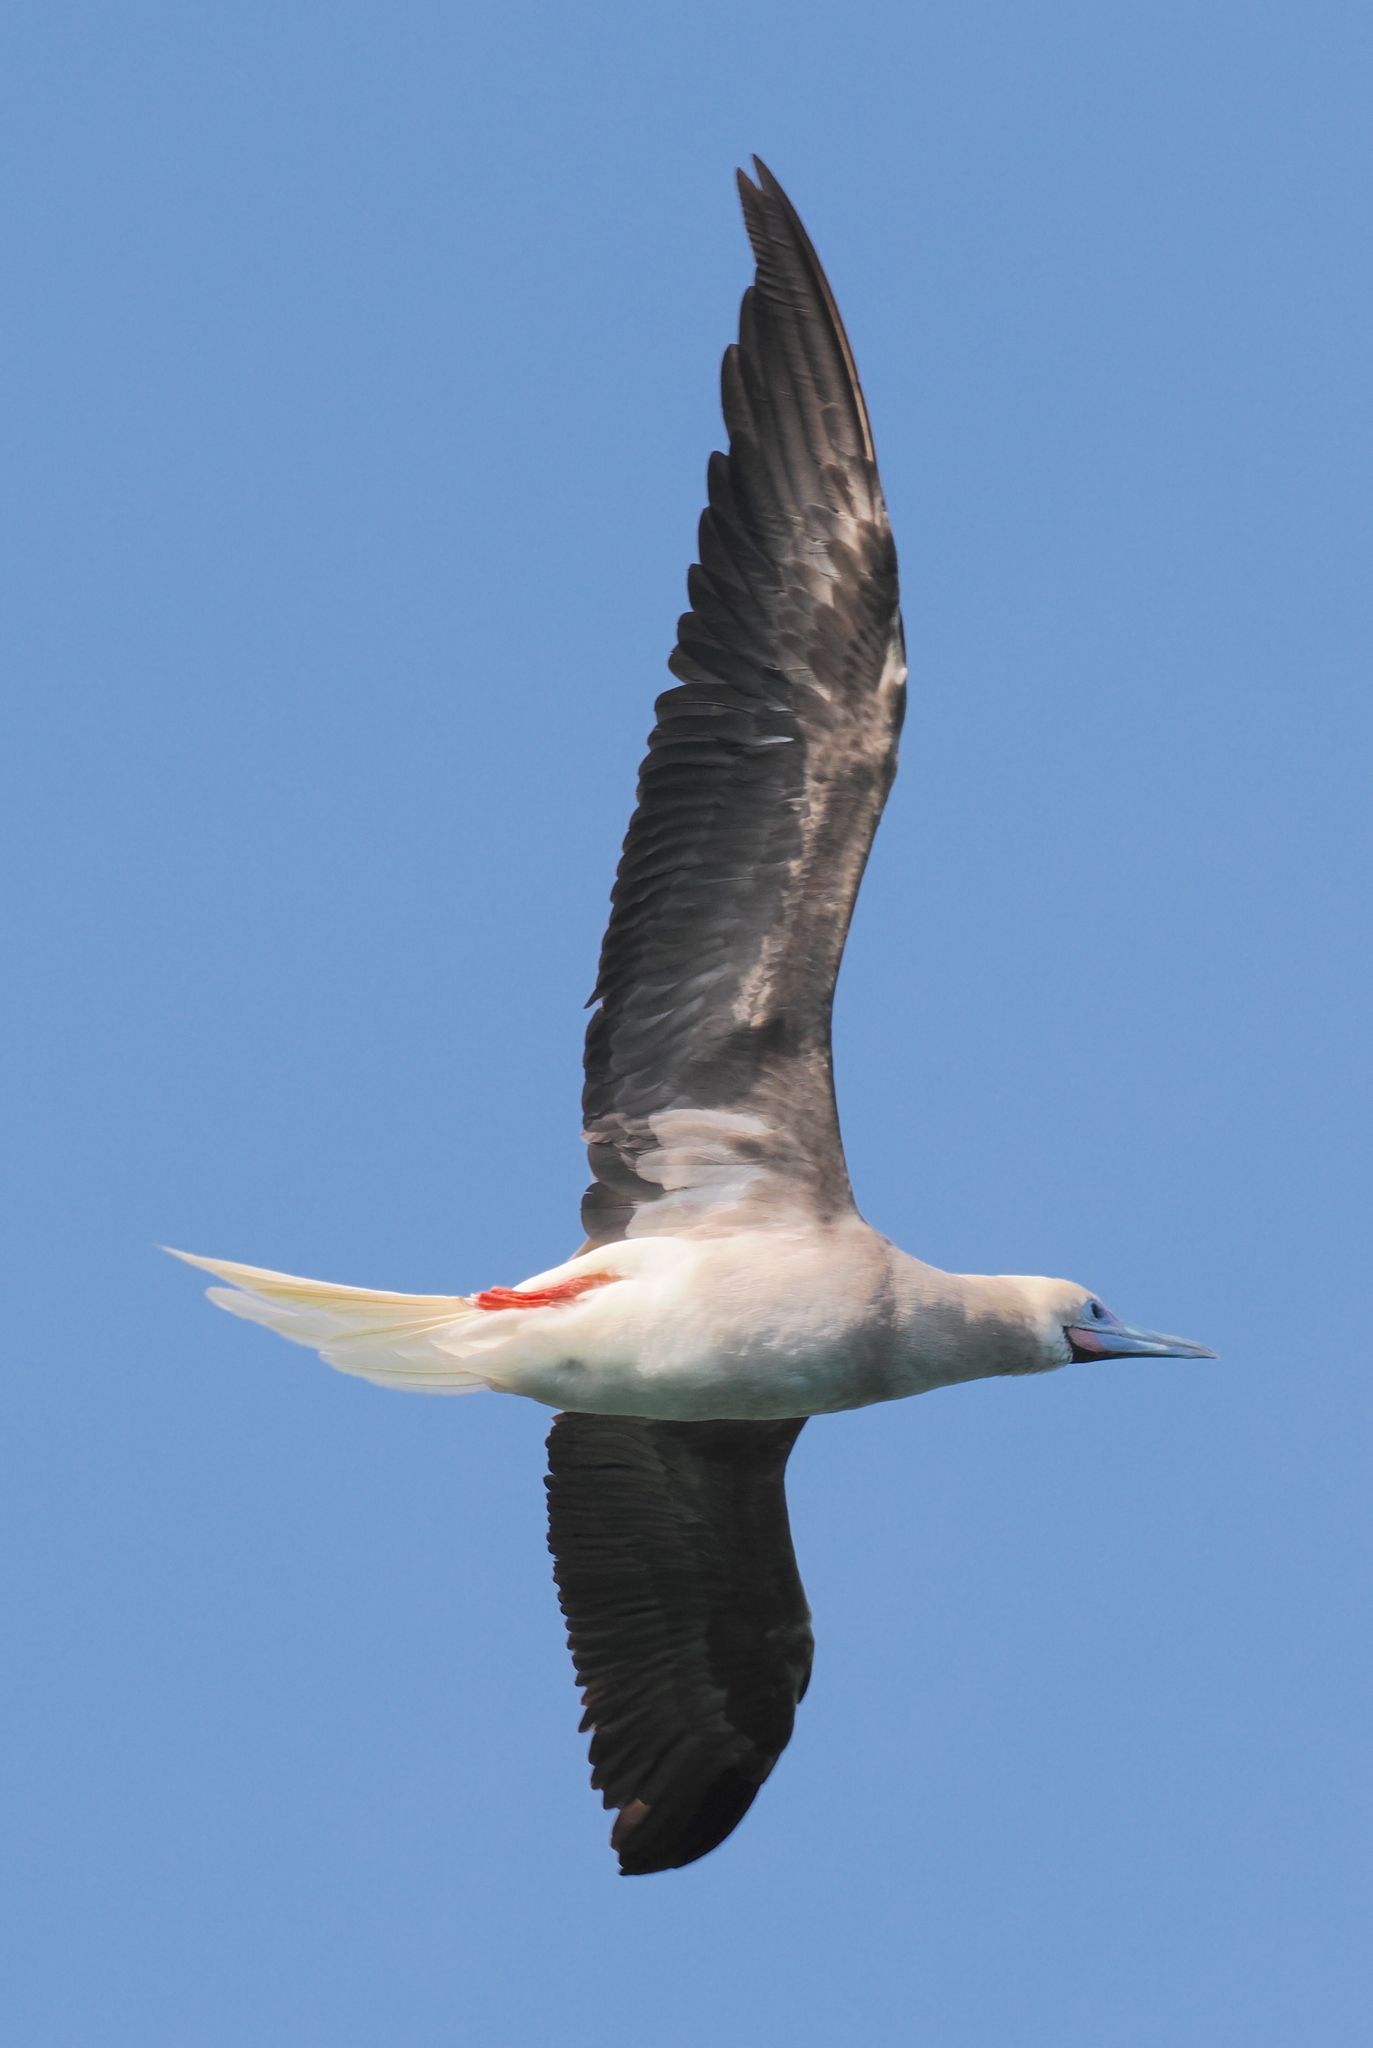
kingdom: Animalia
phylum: Chordata
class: Aves
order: Suliformes
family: Sulidae
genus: Sula
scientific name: Sula sula
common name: Red-footed booby
